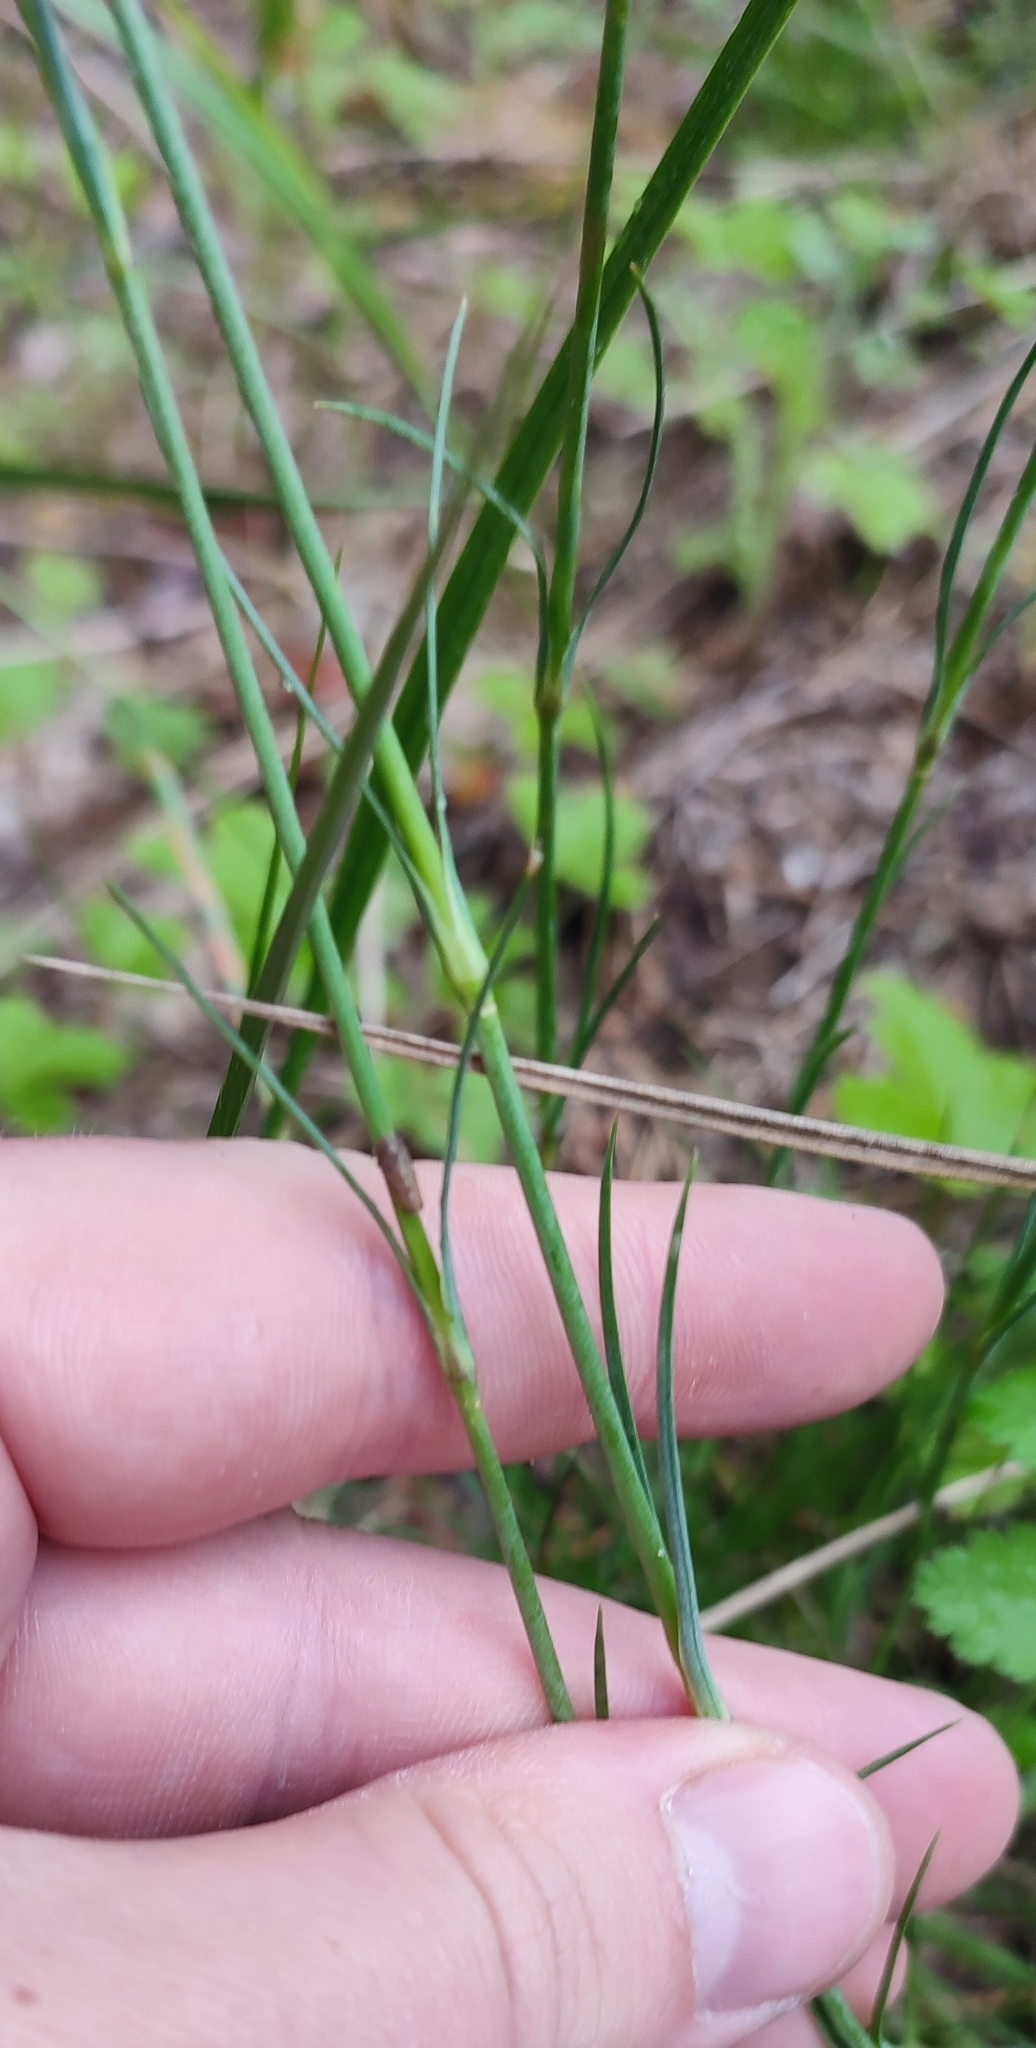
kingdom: Plantae
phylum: Tracheophyta
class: Magnoliopsida
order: Caryophyllales
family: Caryophyllaceae
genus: Eremogone
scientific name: Eremogone saxatilis
